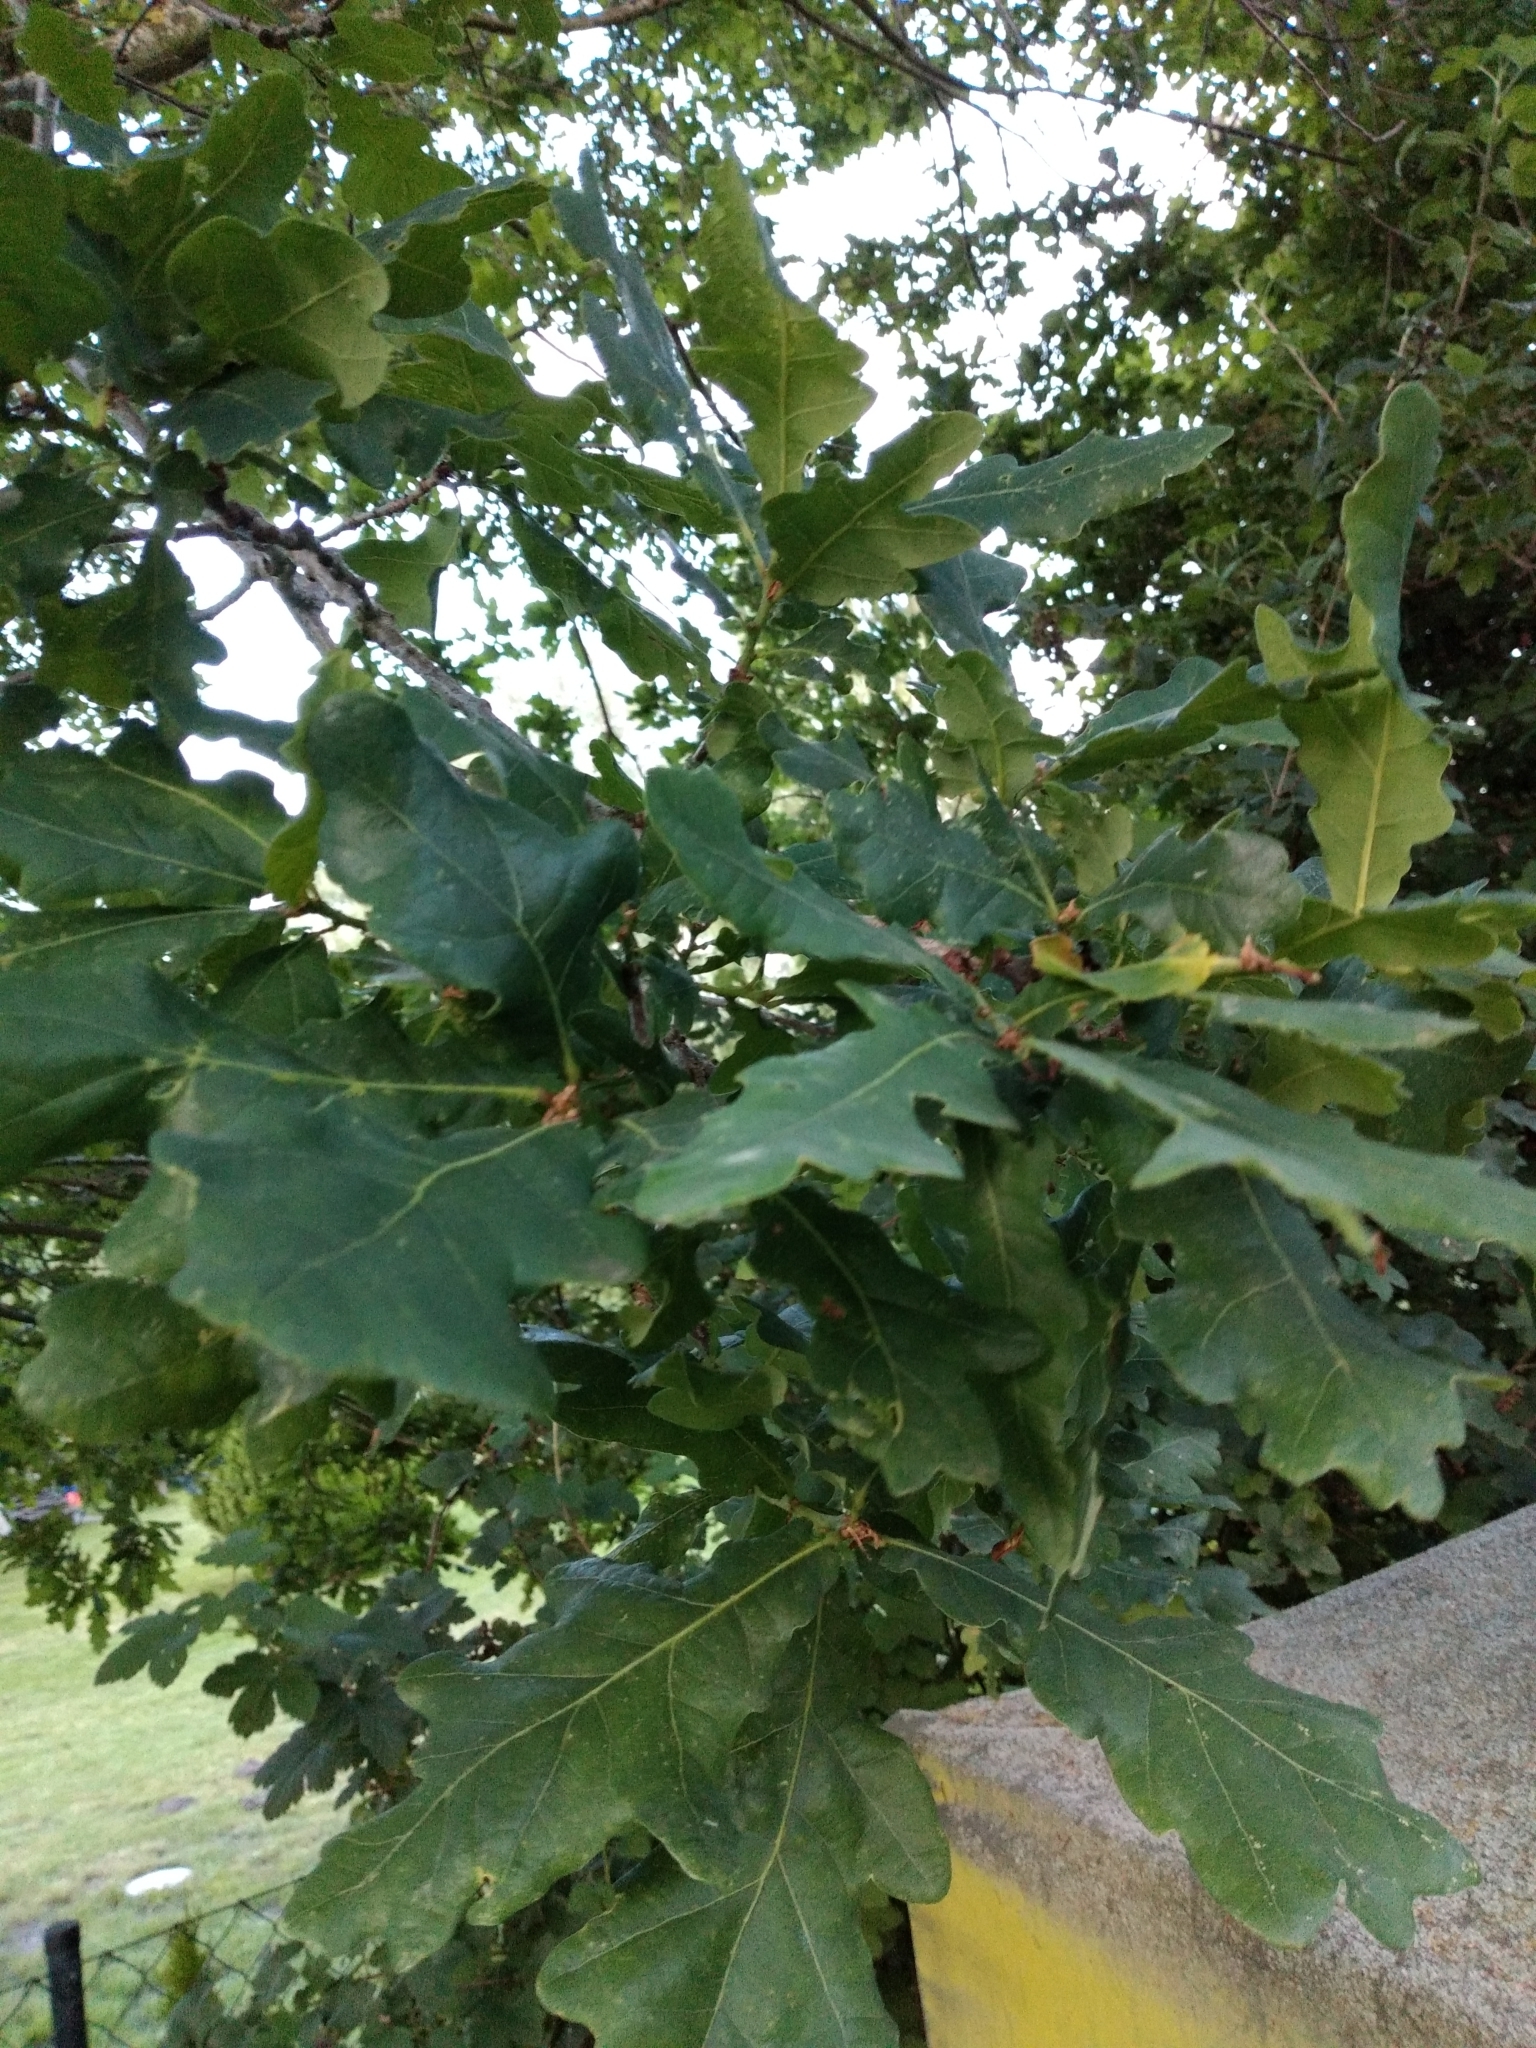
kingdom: Plantae
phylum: Tracheophyta
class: Magnoliopsida
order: Fagales
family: Fagaceae
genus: Quercus
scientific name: Quercus robur
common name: Pedunculate oak
